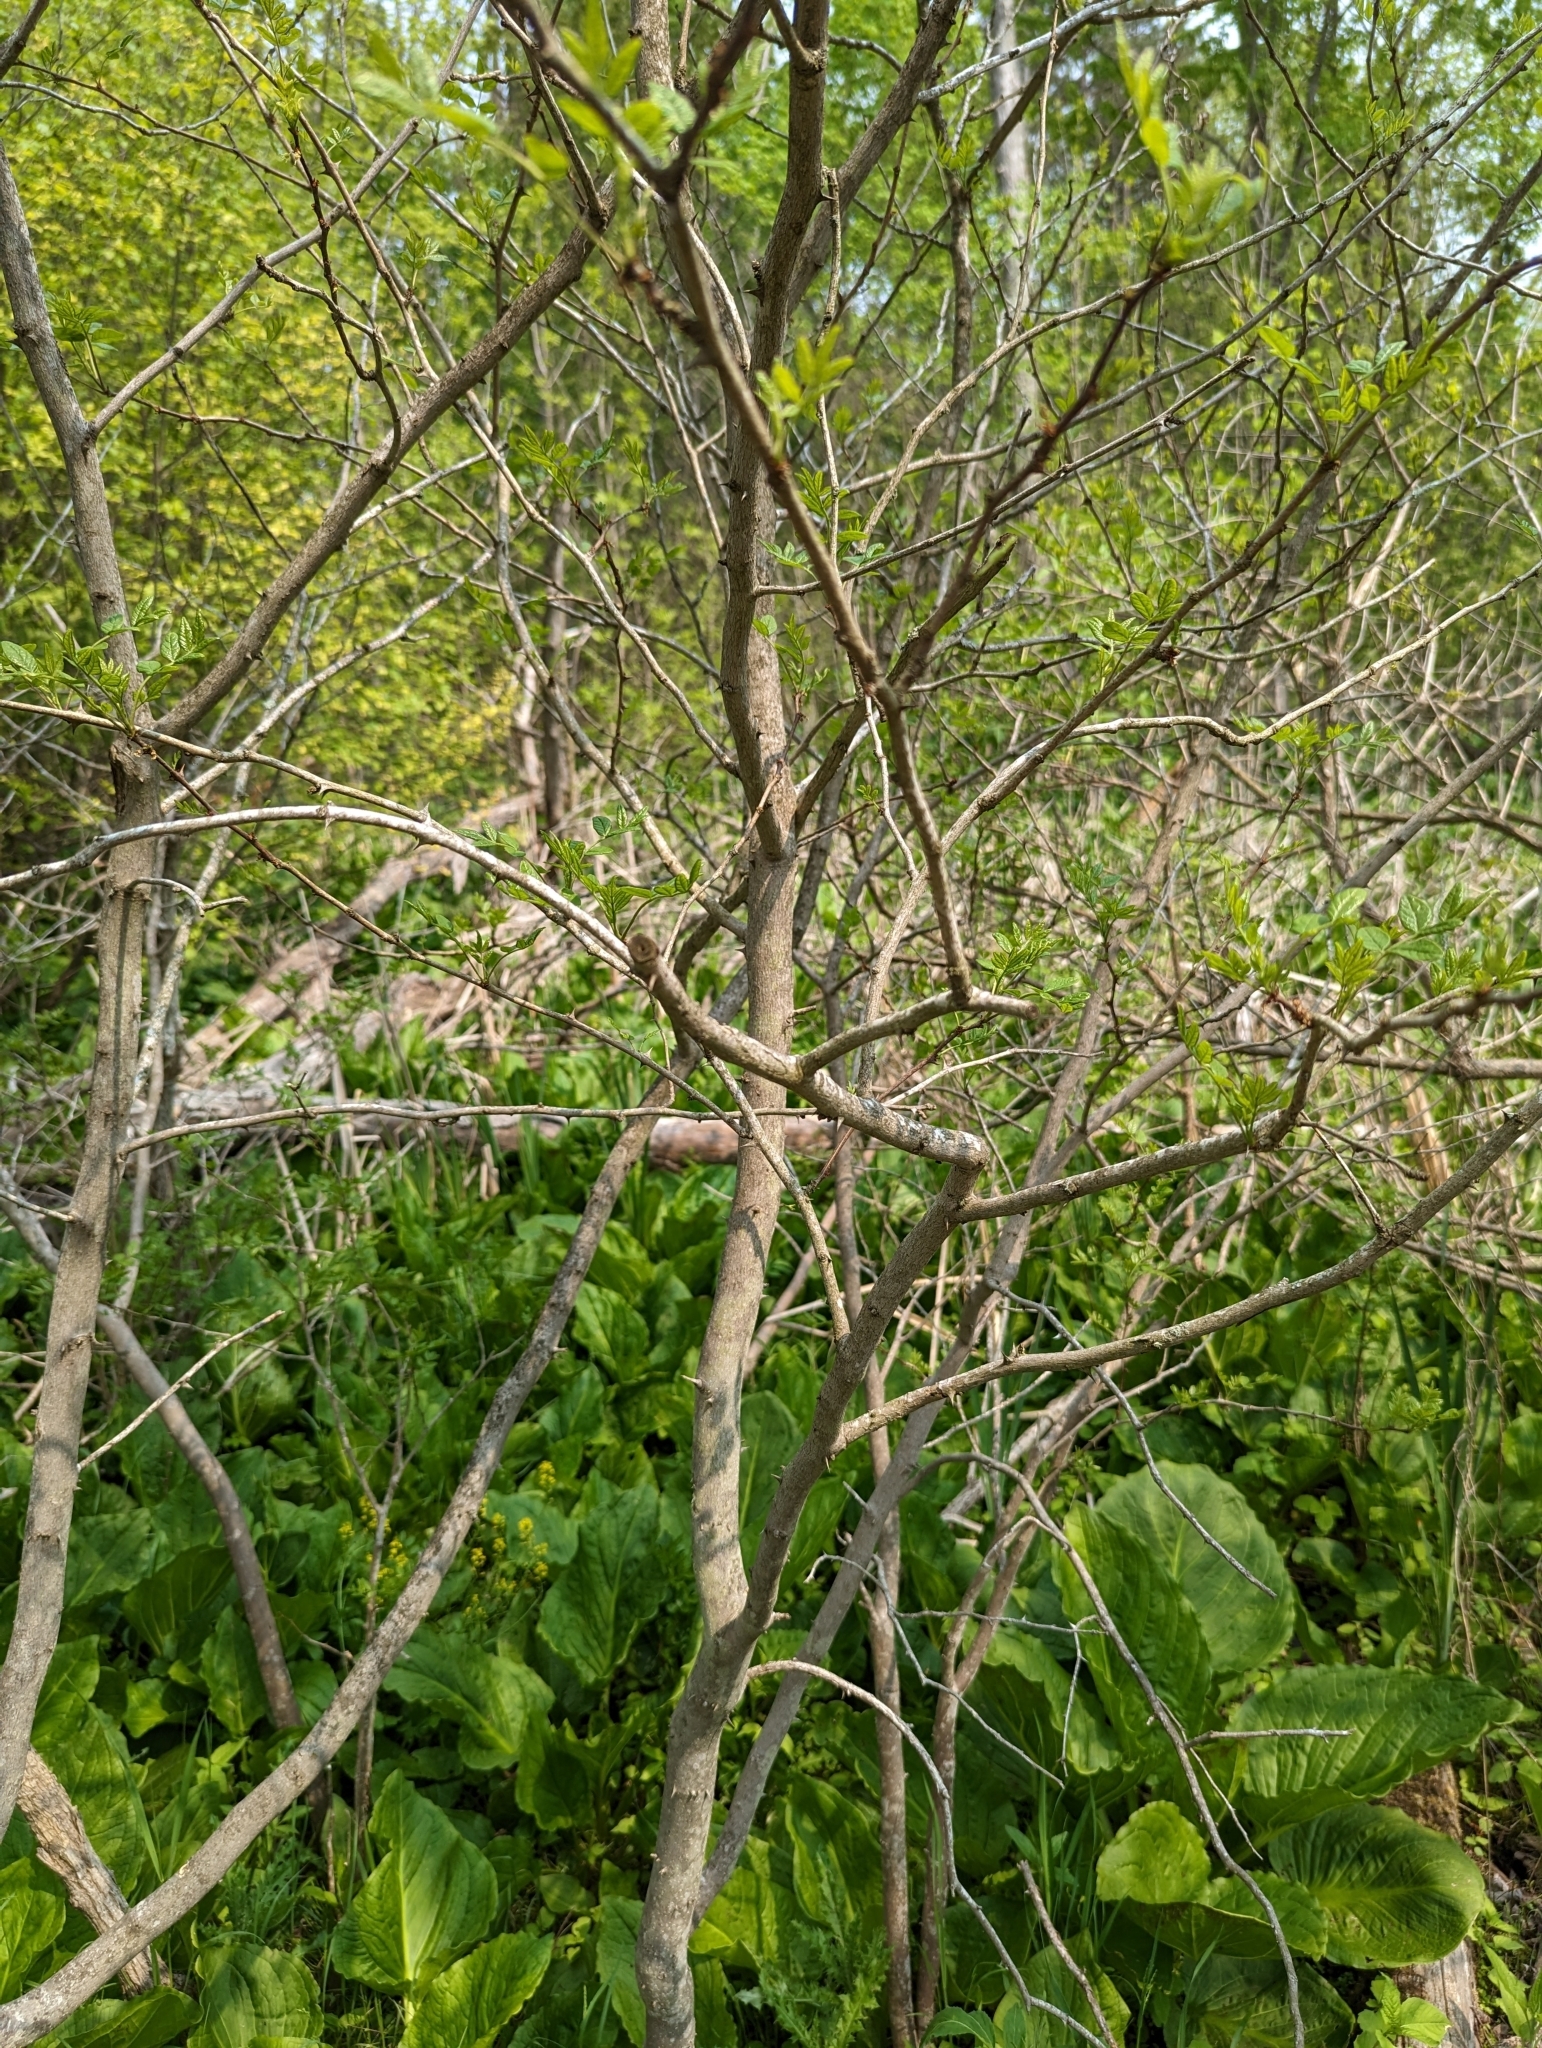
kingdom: Plantae
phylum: Tracheophyta
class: Magnoliopsida
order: Sapindales
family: Rutaceae
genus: Zanthoxylum
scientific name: Zanthoxylum americanum
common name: Northern prickly-ash
